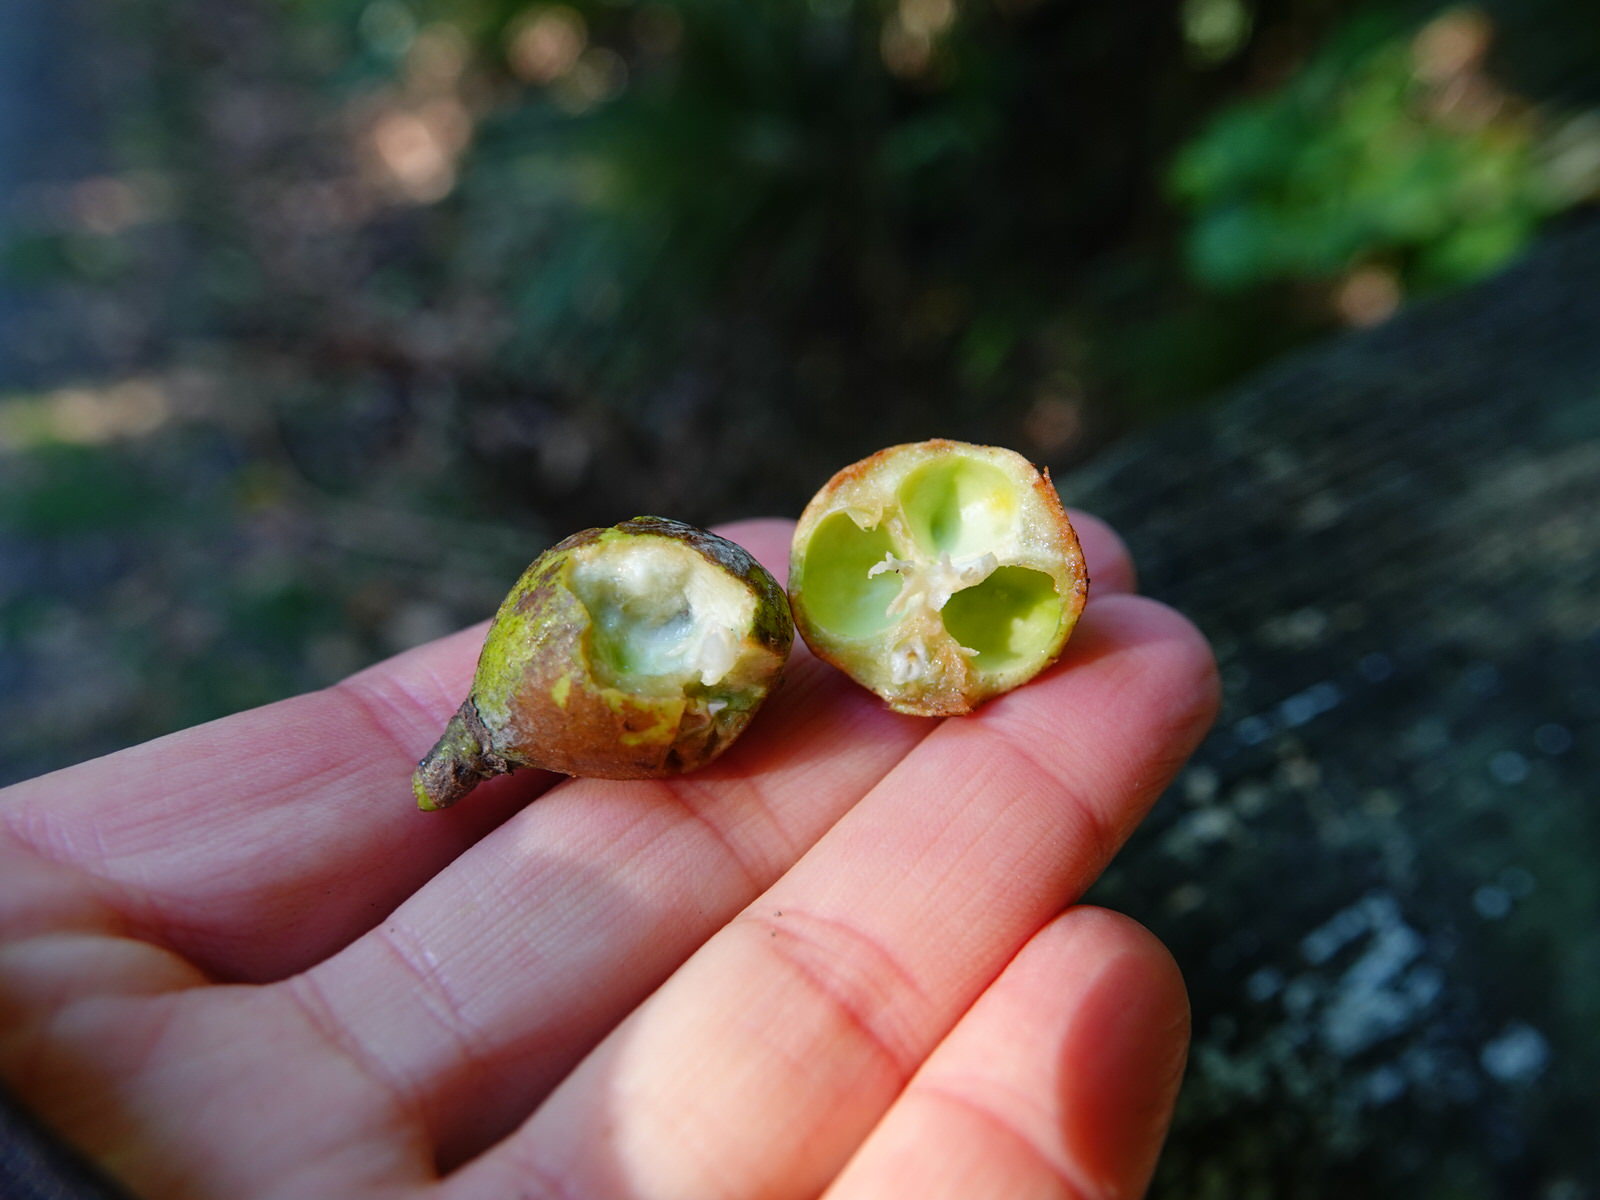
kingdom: Plantae
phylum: Tracheophyta
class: Magnoliopsida
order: Sapindales
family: Meliaceae
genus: Didymocheton
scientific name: Didymocheton spectabilis
